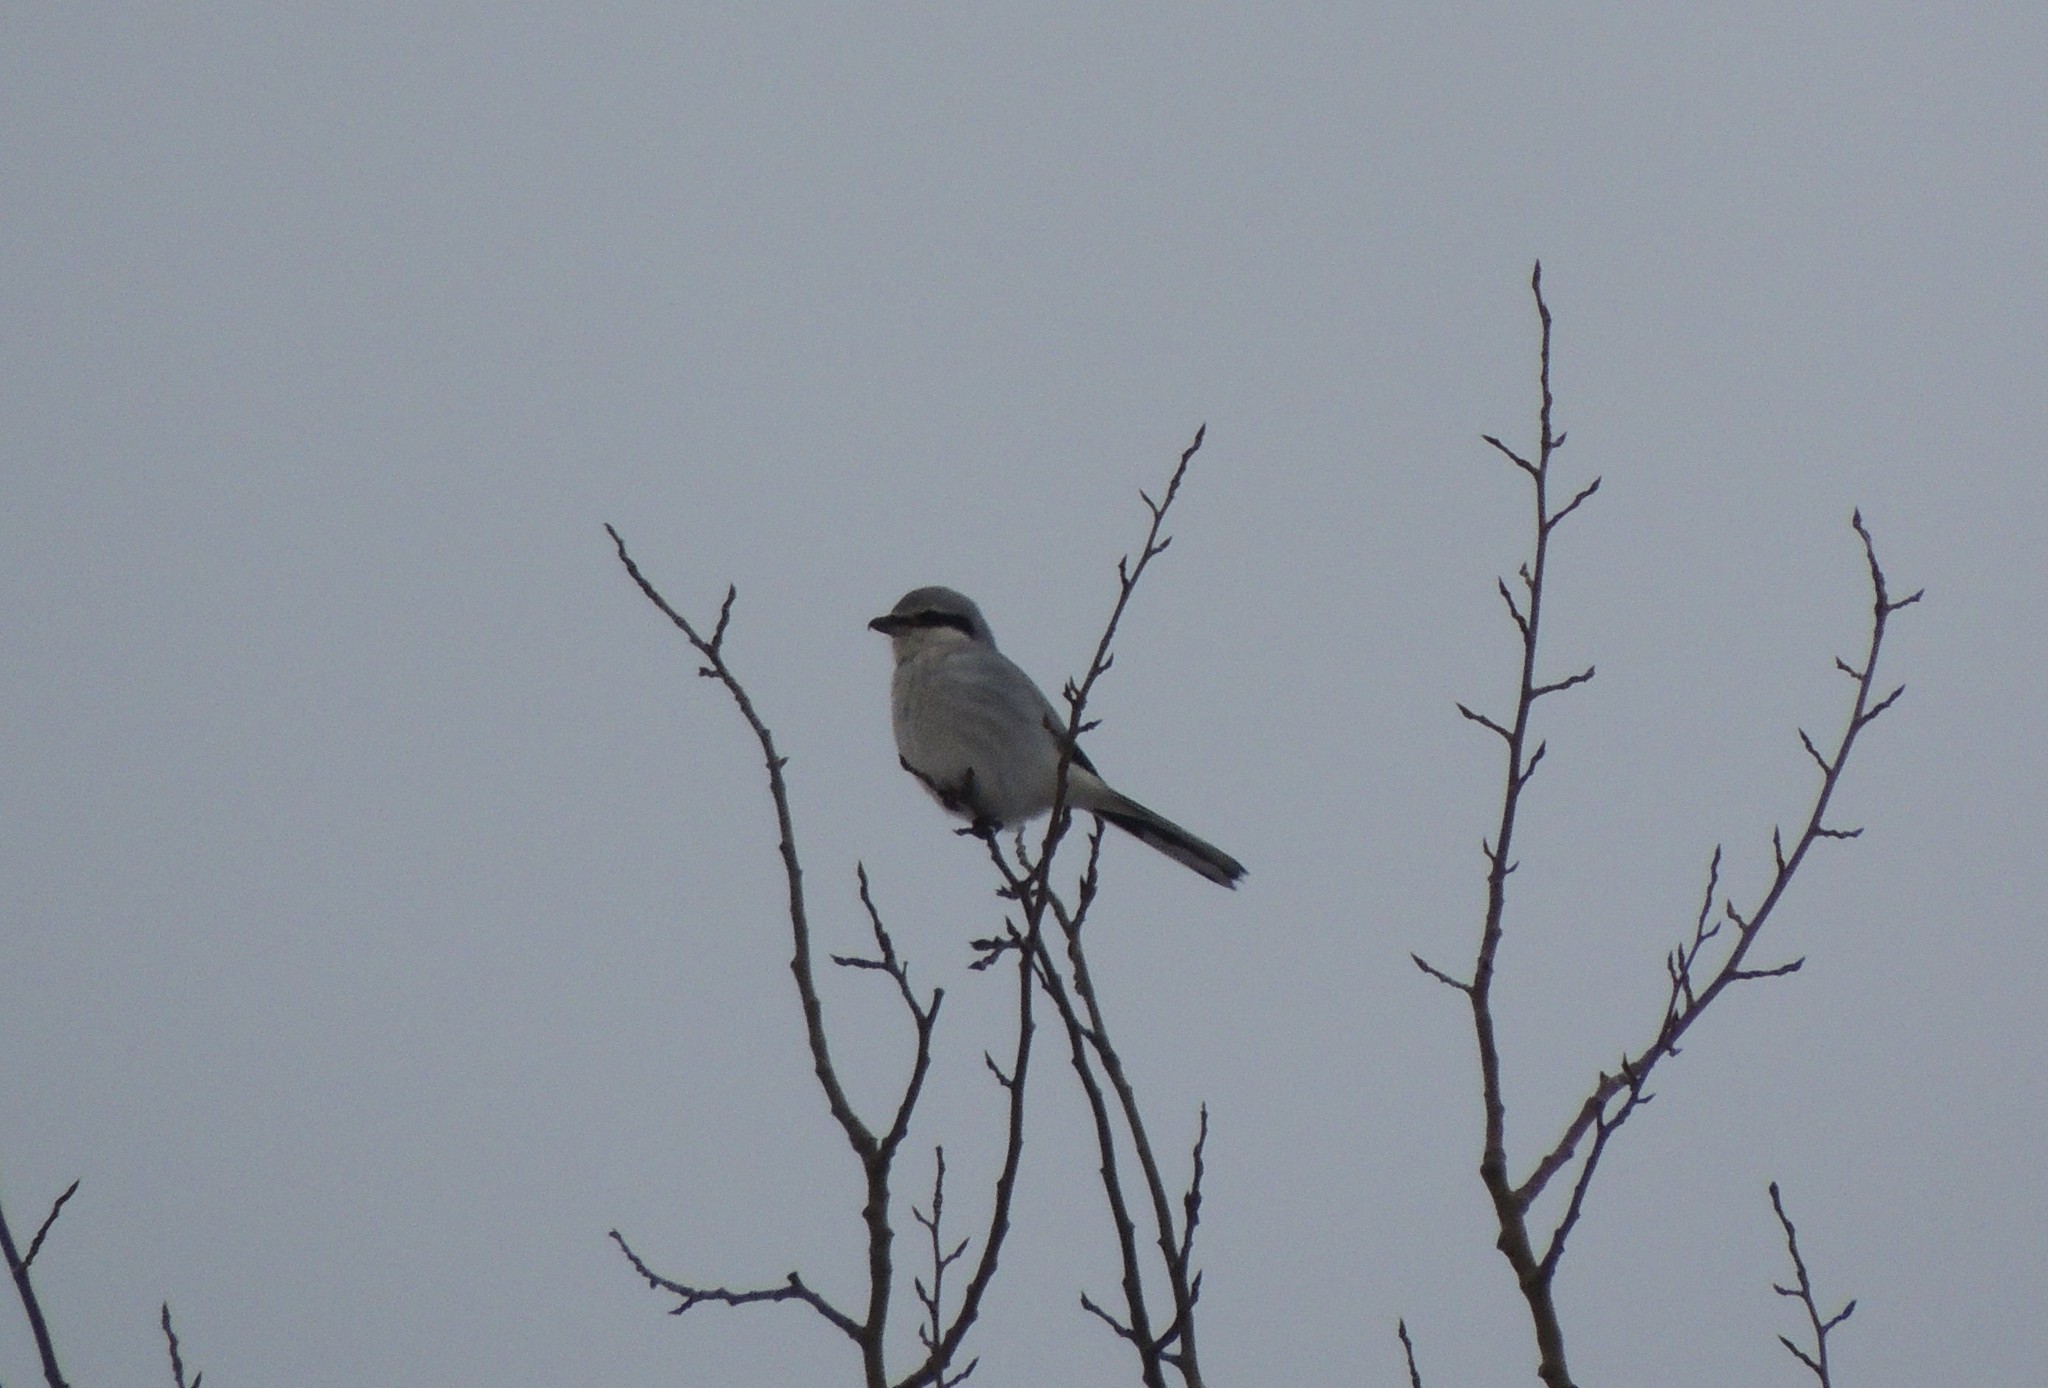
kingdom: Animalia
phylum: Chordata
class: Aves
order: Passeriformes
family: Laniidae
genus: Lanius
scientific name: Lanius borealis
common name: Northern shrike
